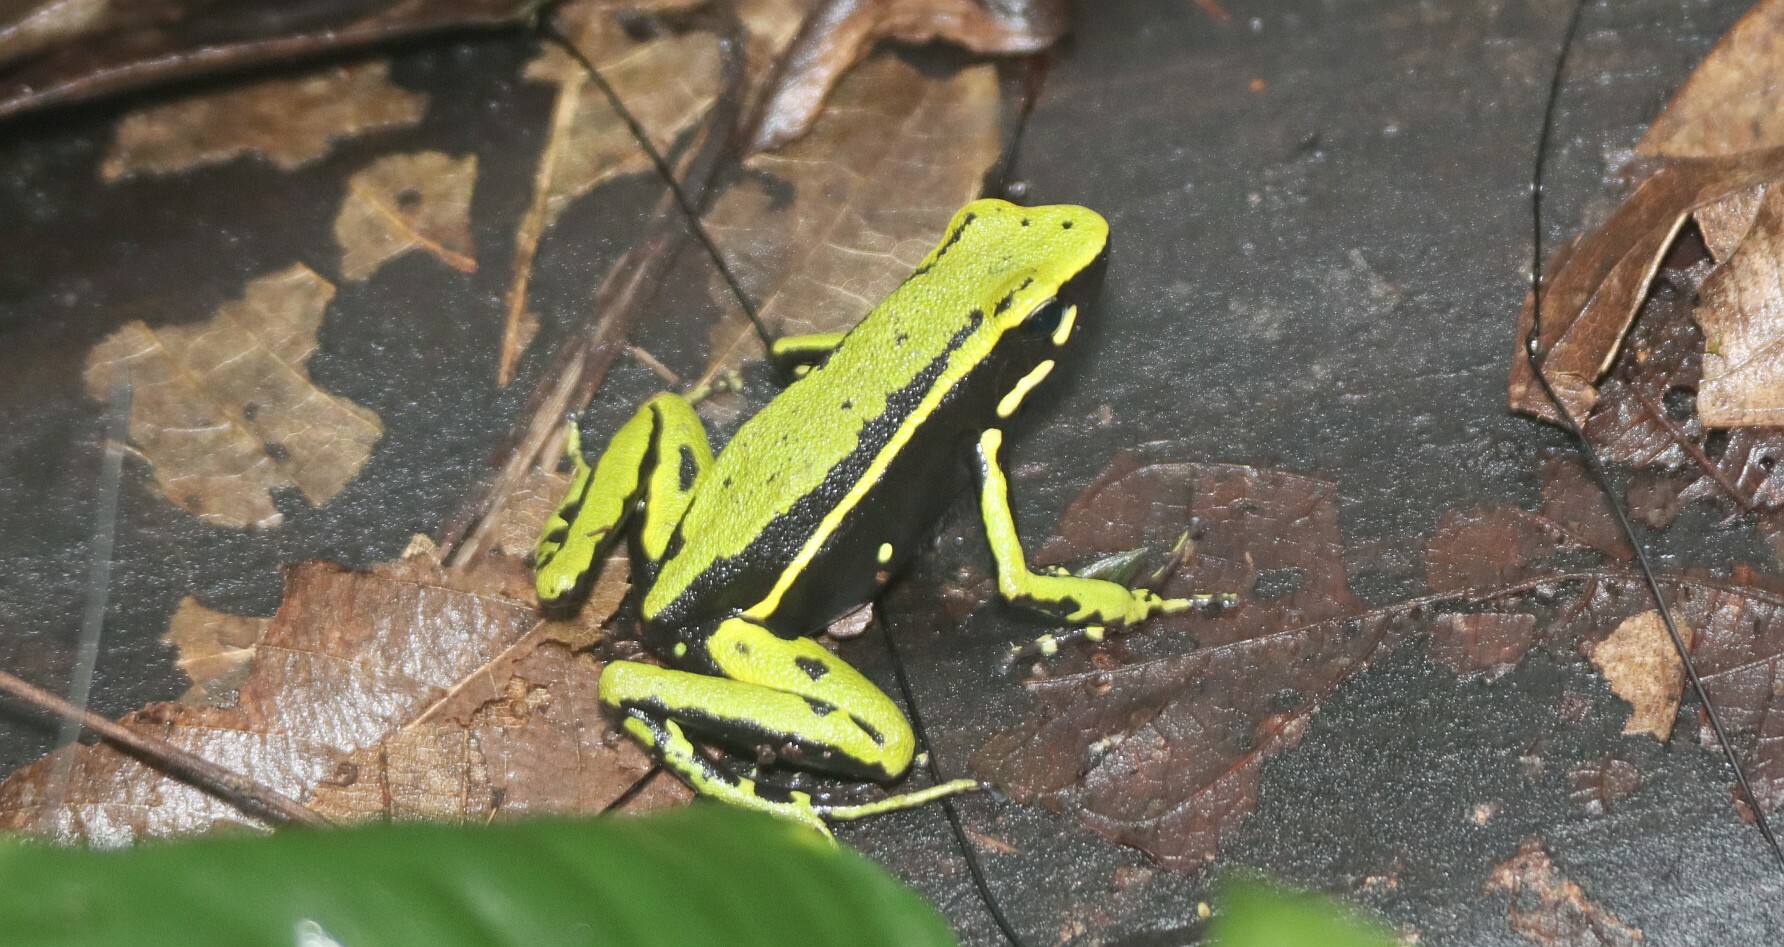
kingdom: Animalia
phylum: Chordata
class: Amphibia
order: Anura
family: Dendrobatidae
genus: Ameerega
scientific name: Ameerega trivittata
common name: Three-striped arrow-poison frog
